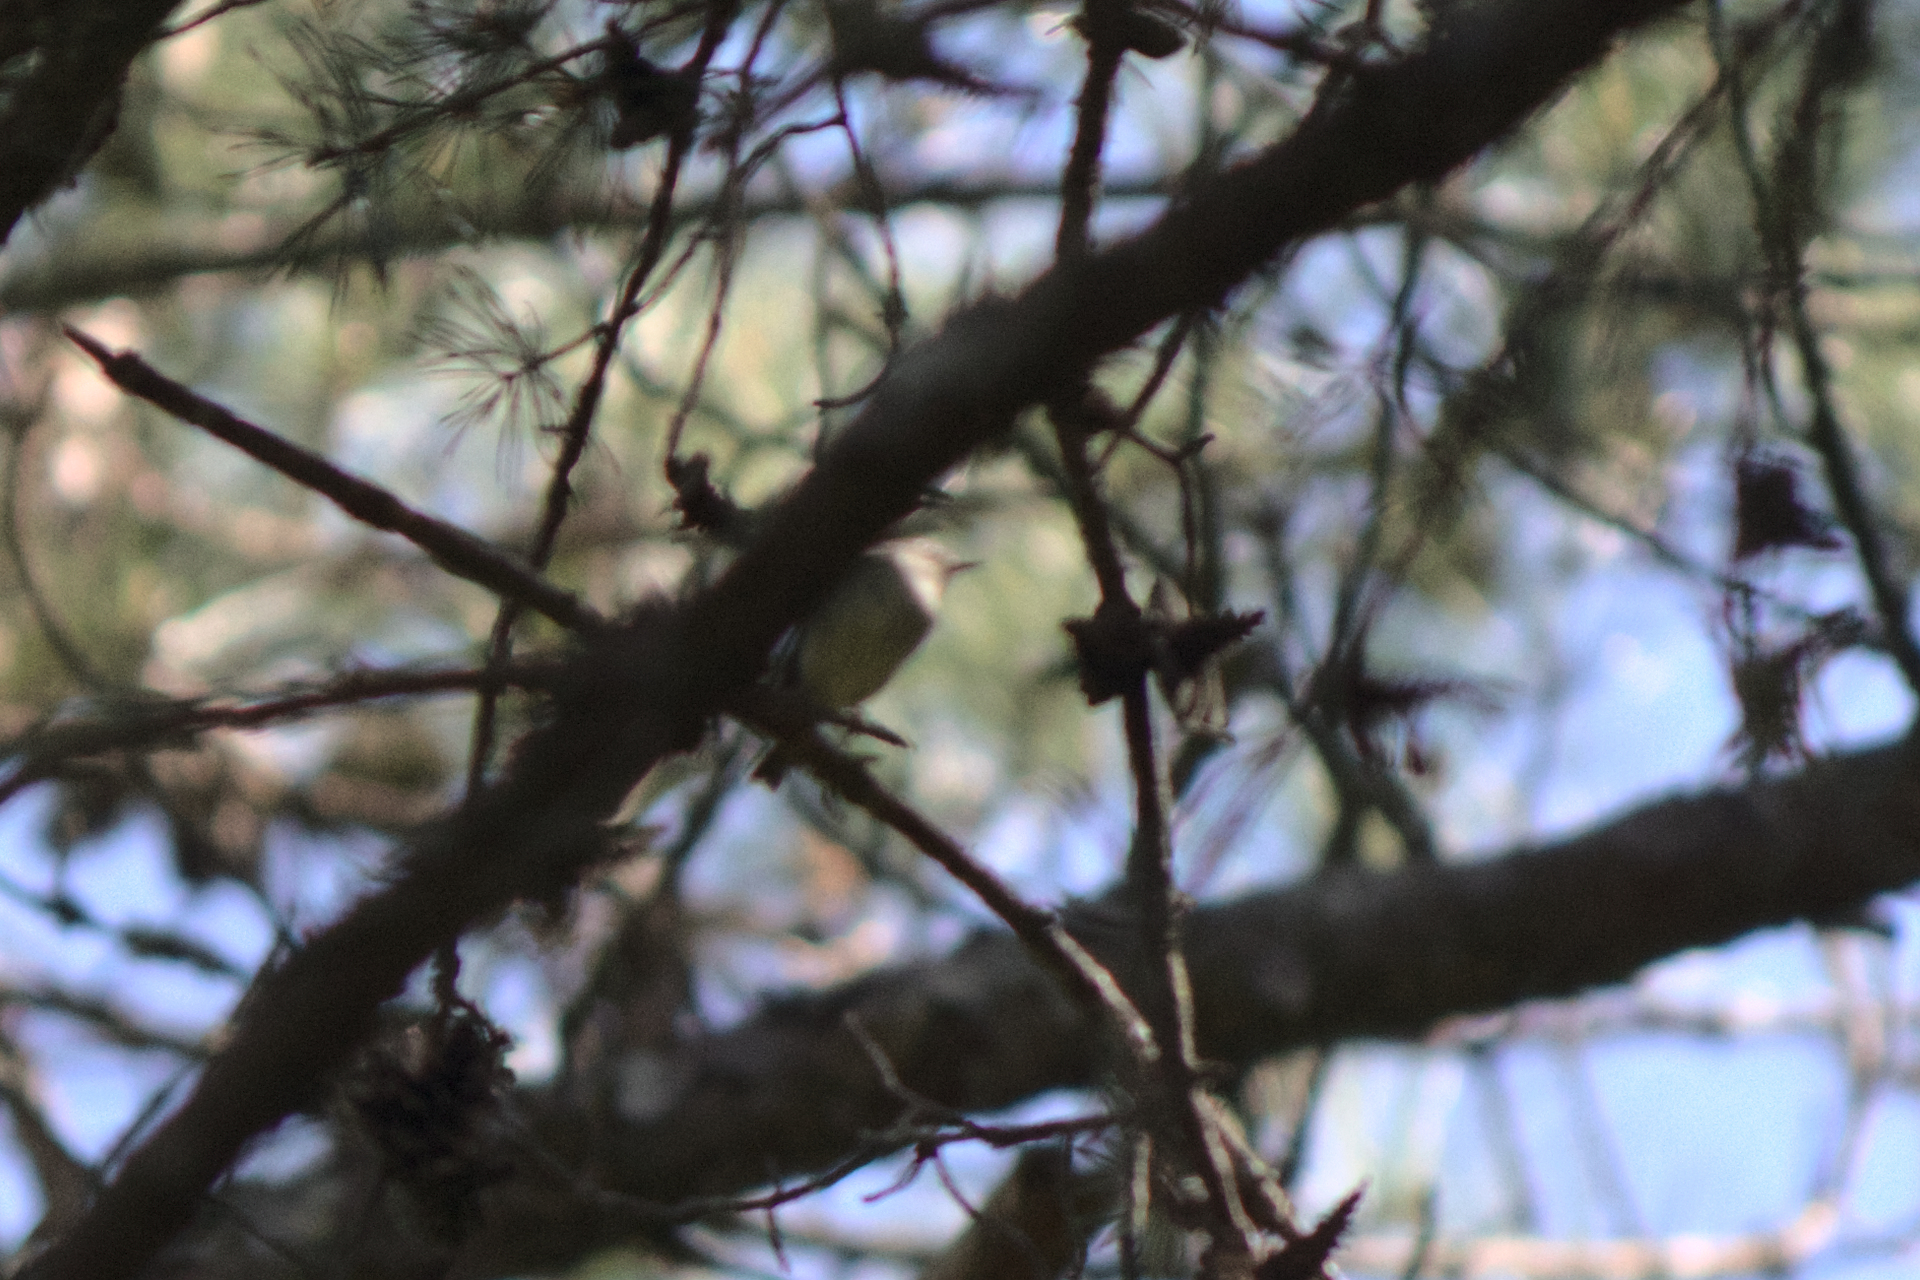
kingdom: Animalia
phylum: Chordata
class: Aves
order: Passeriformes
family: Regulidae
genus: Regulus
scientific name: Regulus calendula
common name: Ruby-crowned kinglet
